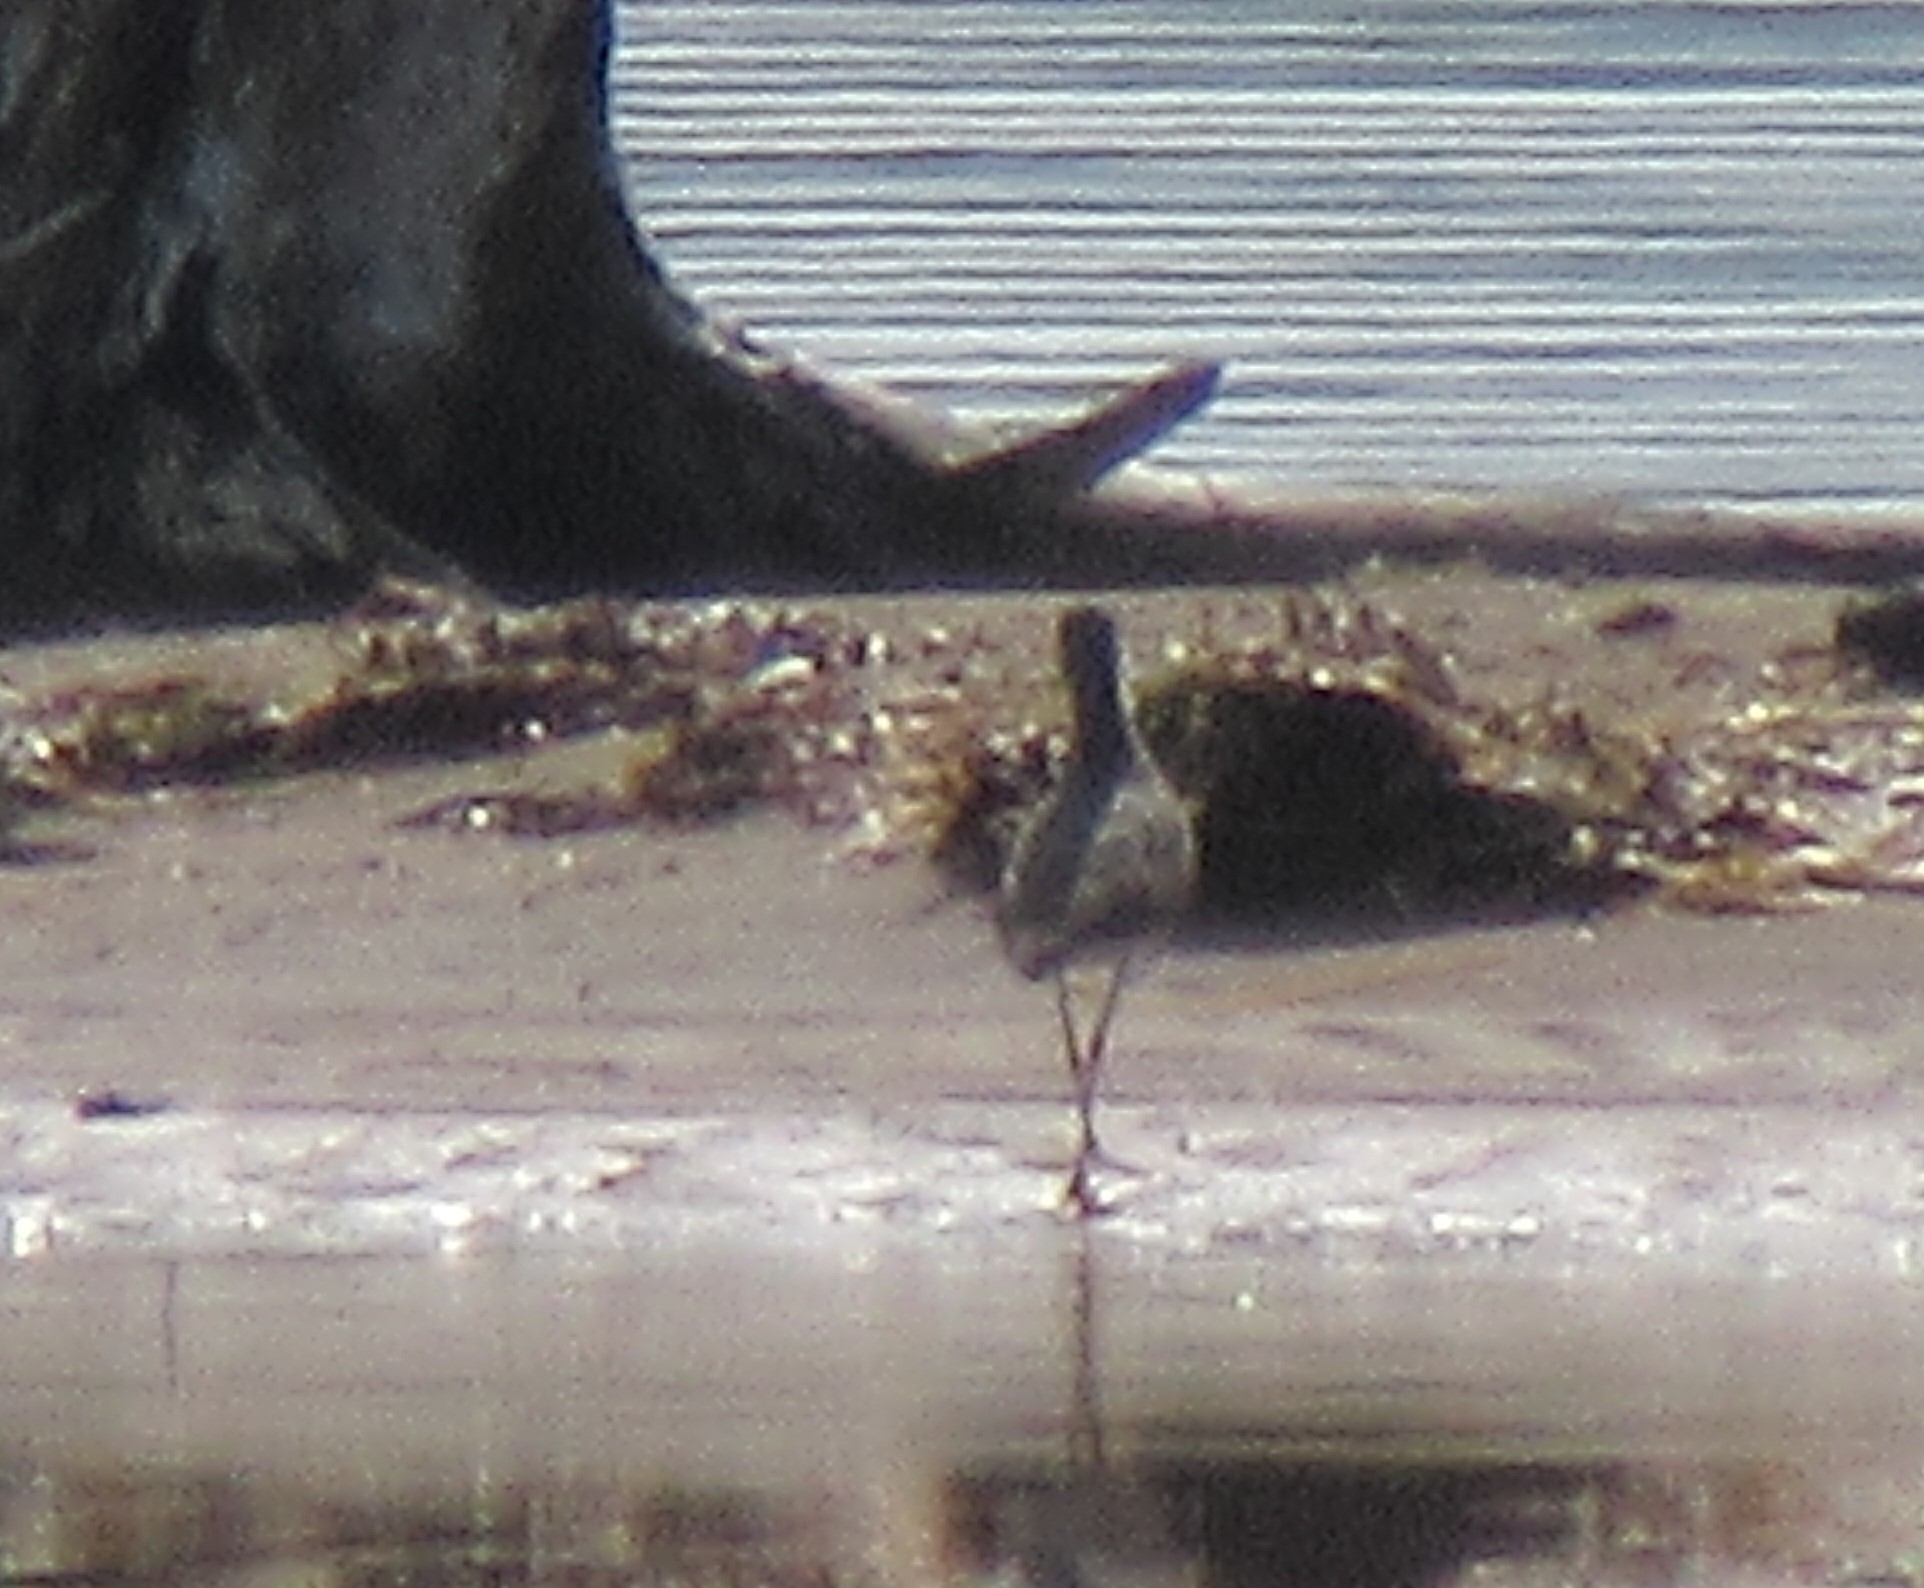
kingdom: Animalia
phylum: Chordata
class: Aves
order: Charadriiformes
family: Scolopacidae
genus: Tringa
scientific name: Tringa
